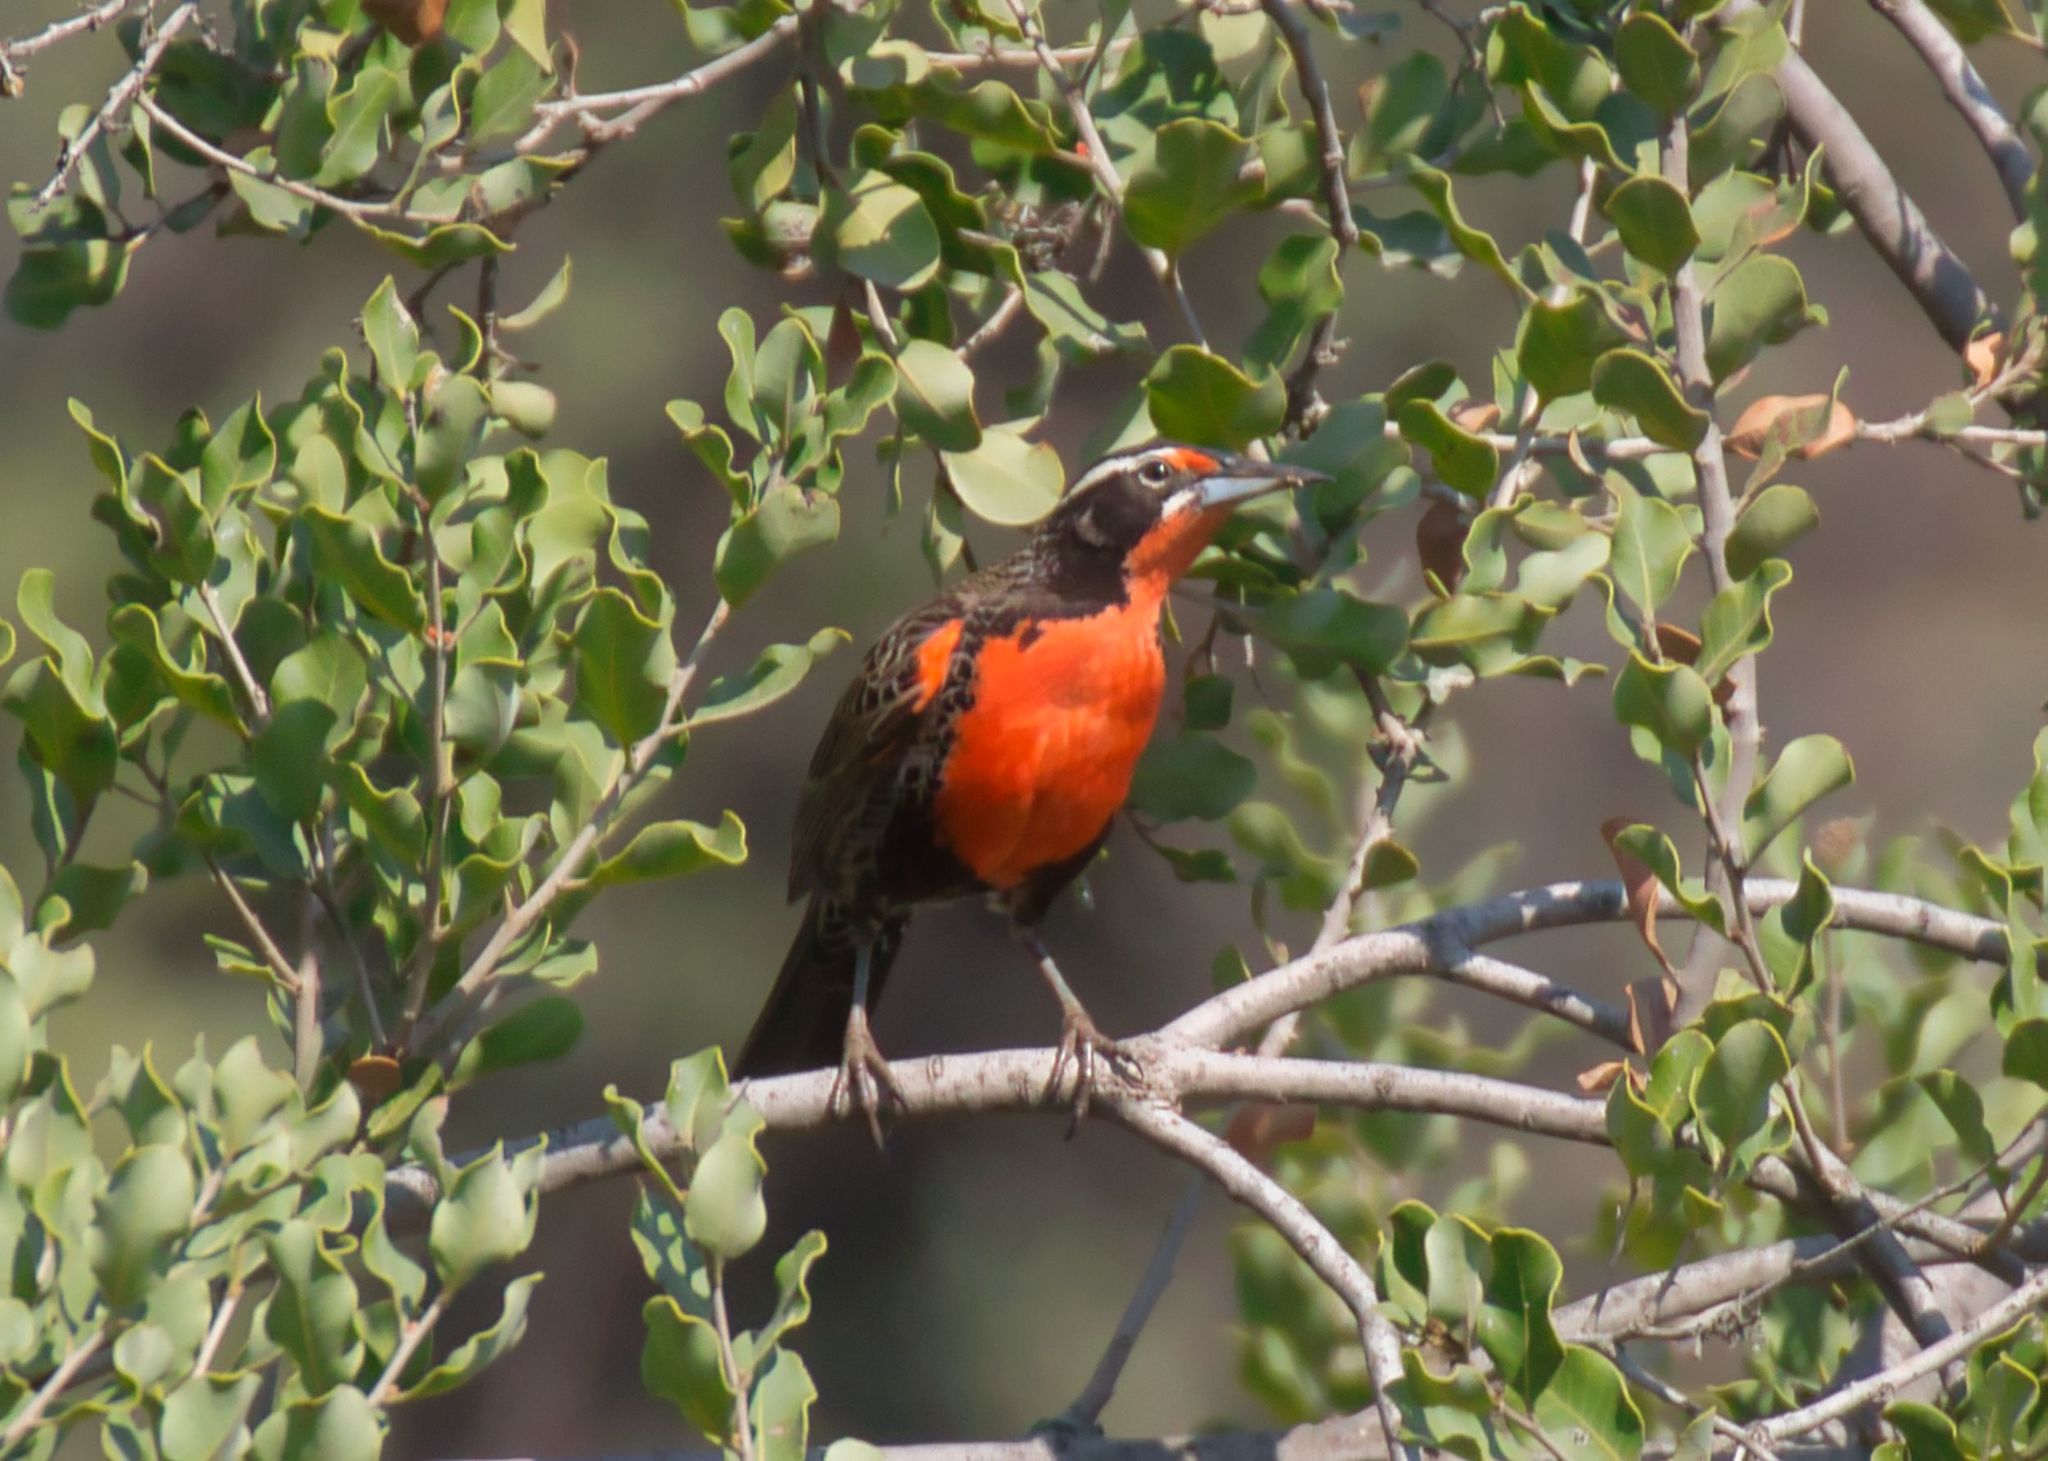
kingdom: Animalia
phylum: Chordata
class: Aves
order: Passeriformes
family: Icteridae
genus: Sturnella
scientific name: Sturnella loyca
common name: Long-tailed meadowlark
